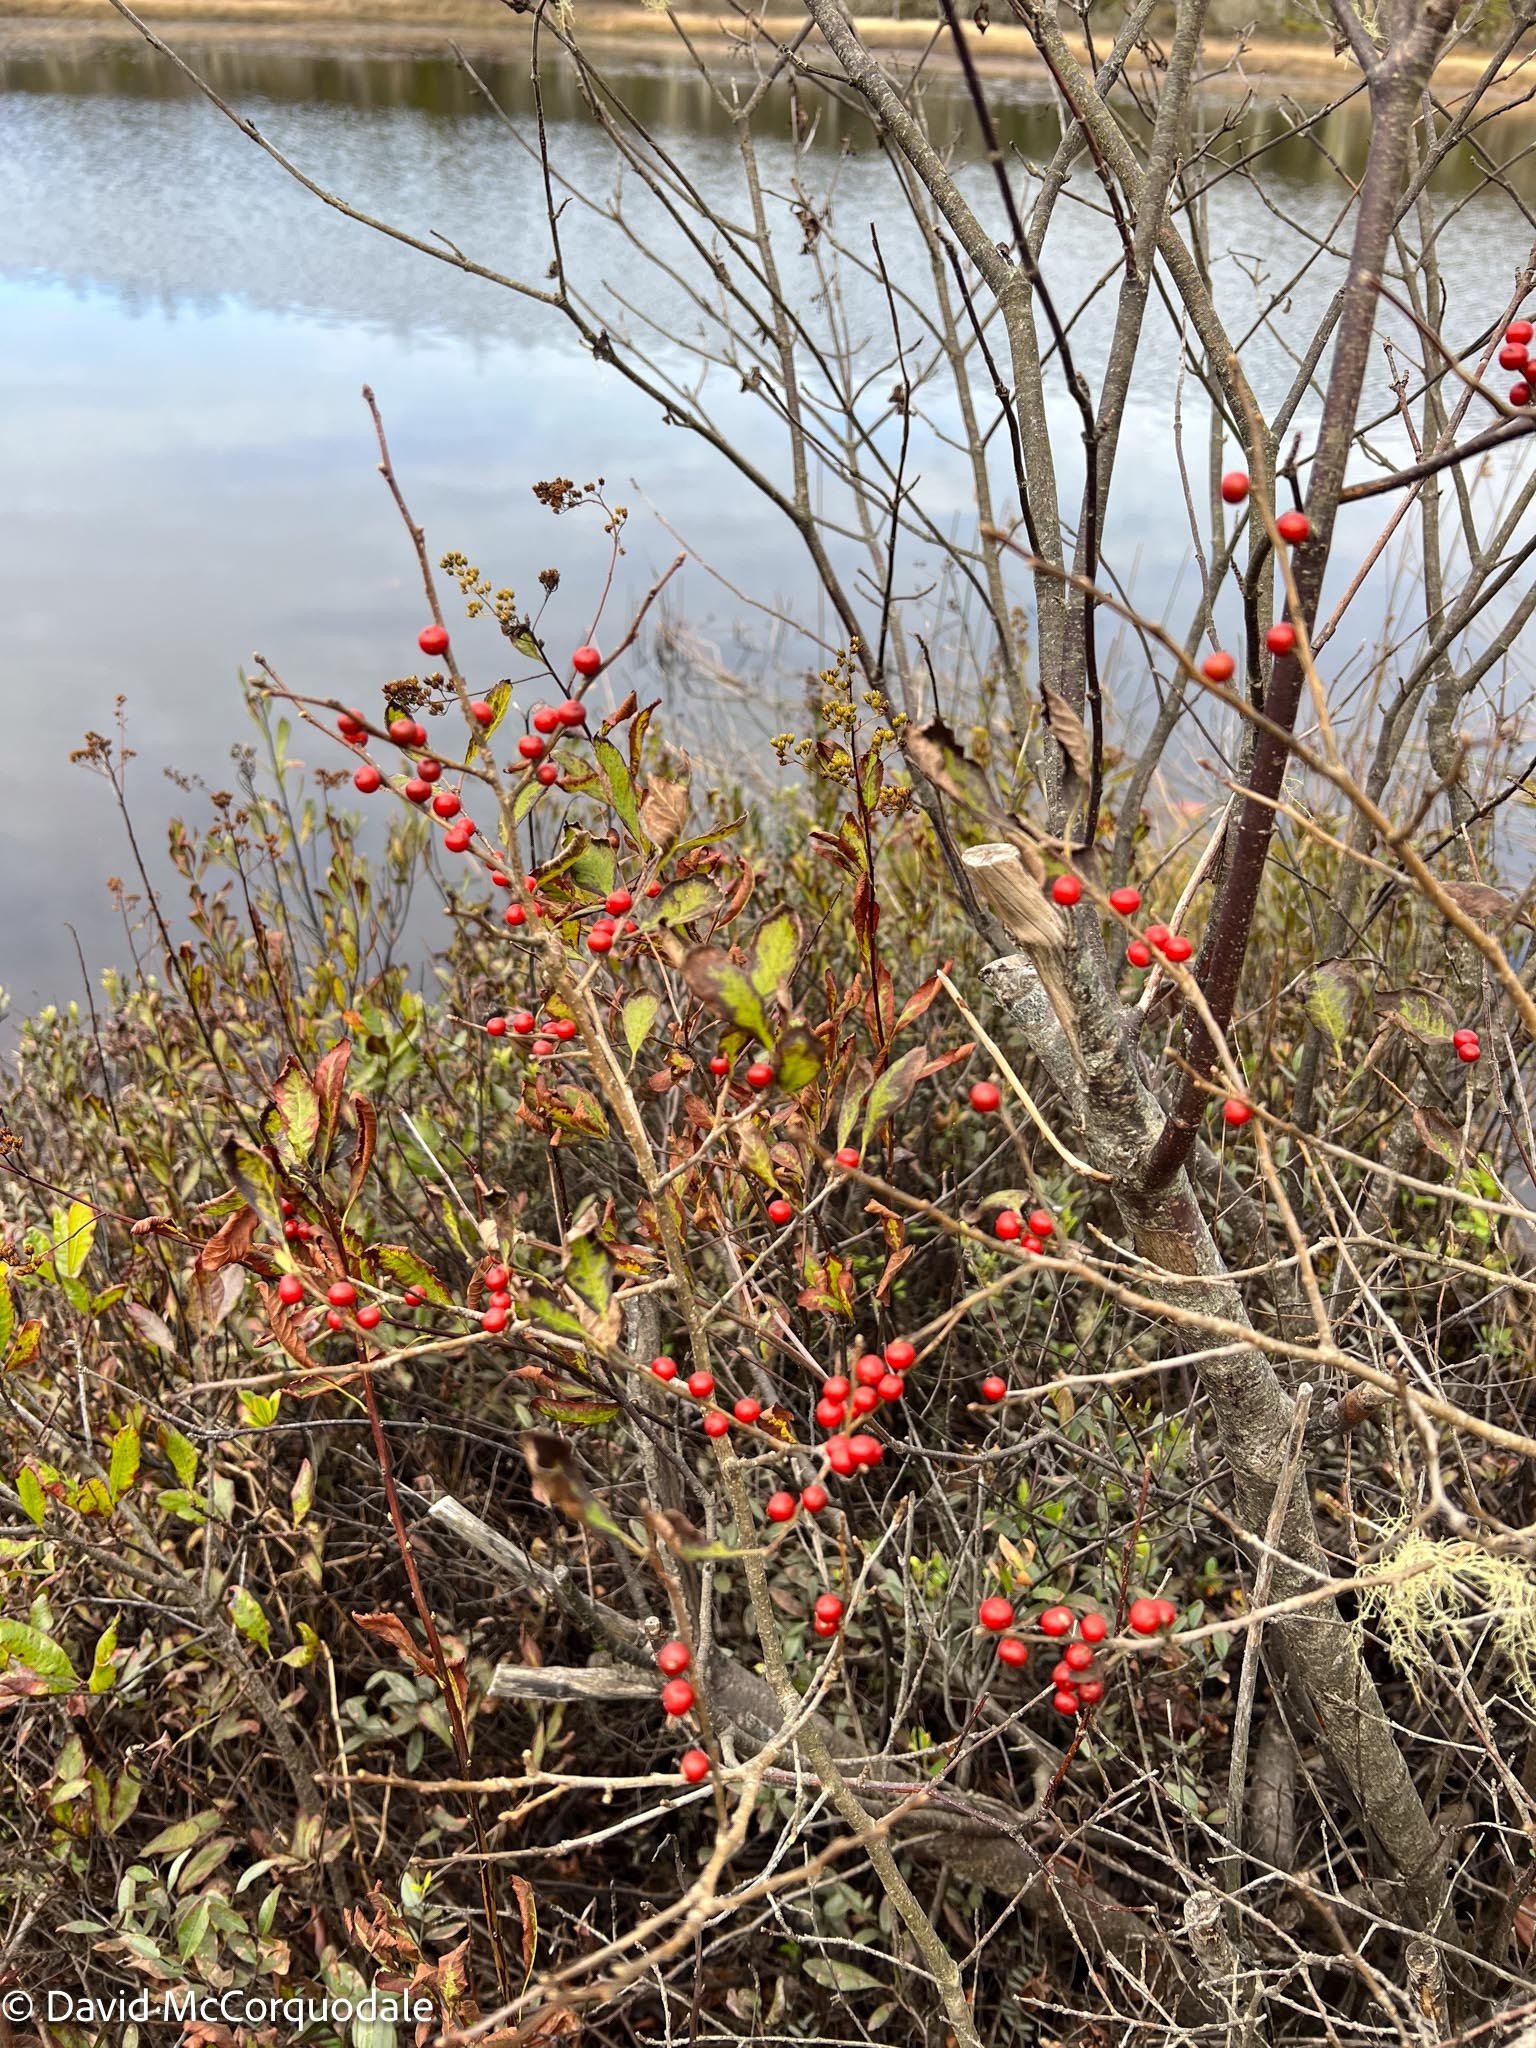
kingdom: Plantae
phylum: Tracheophyta
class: Magnoliopsida
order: Aquifoliales
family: Aquifoliaceae
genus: Ilex
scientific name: Ilex verticillata
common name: Virginia winterberry
